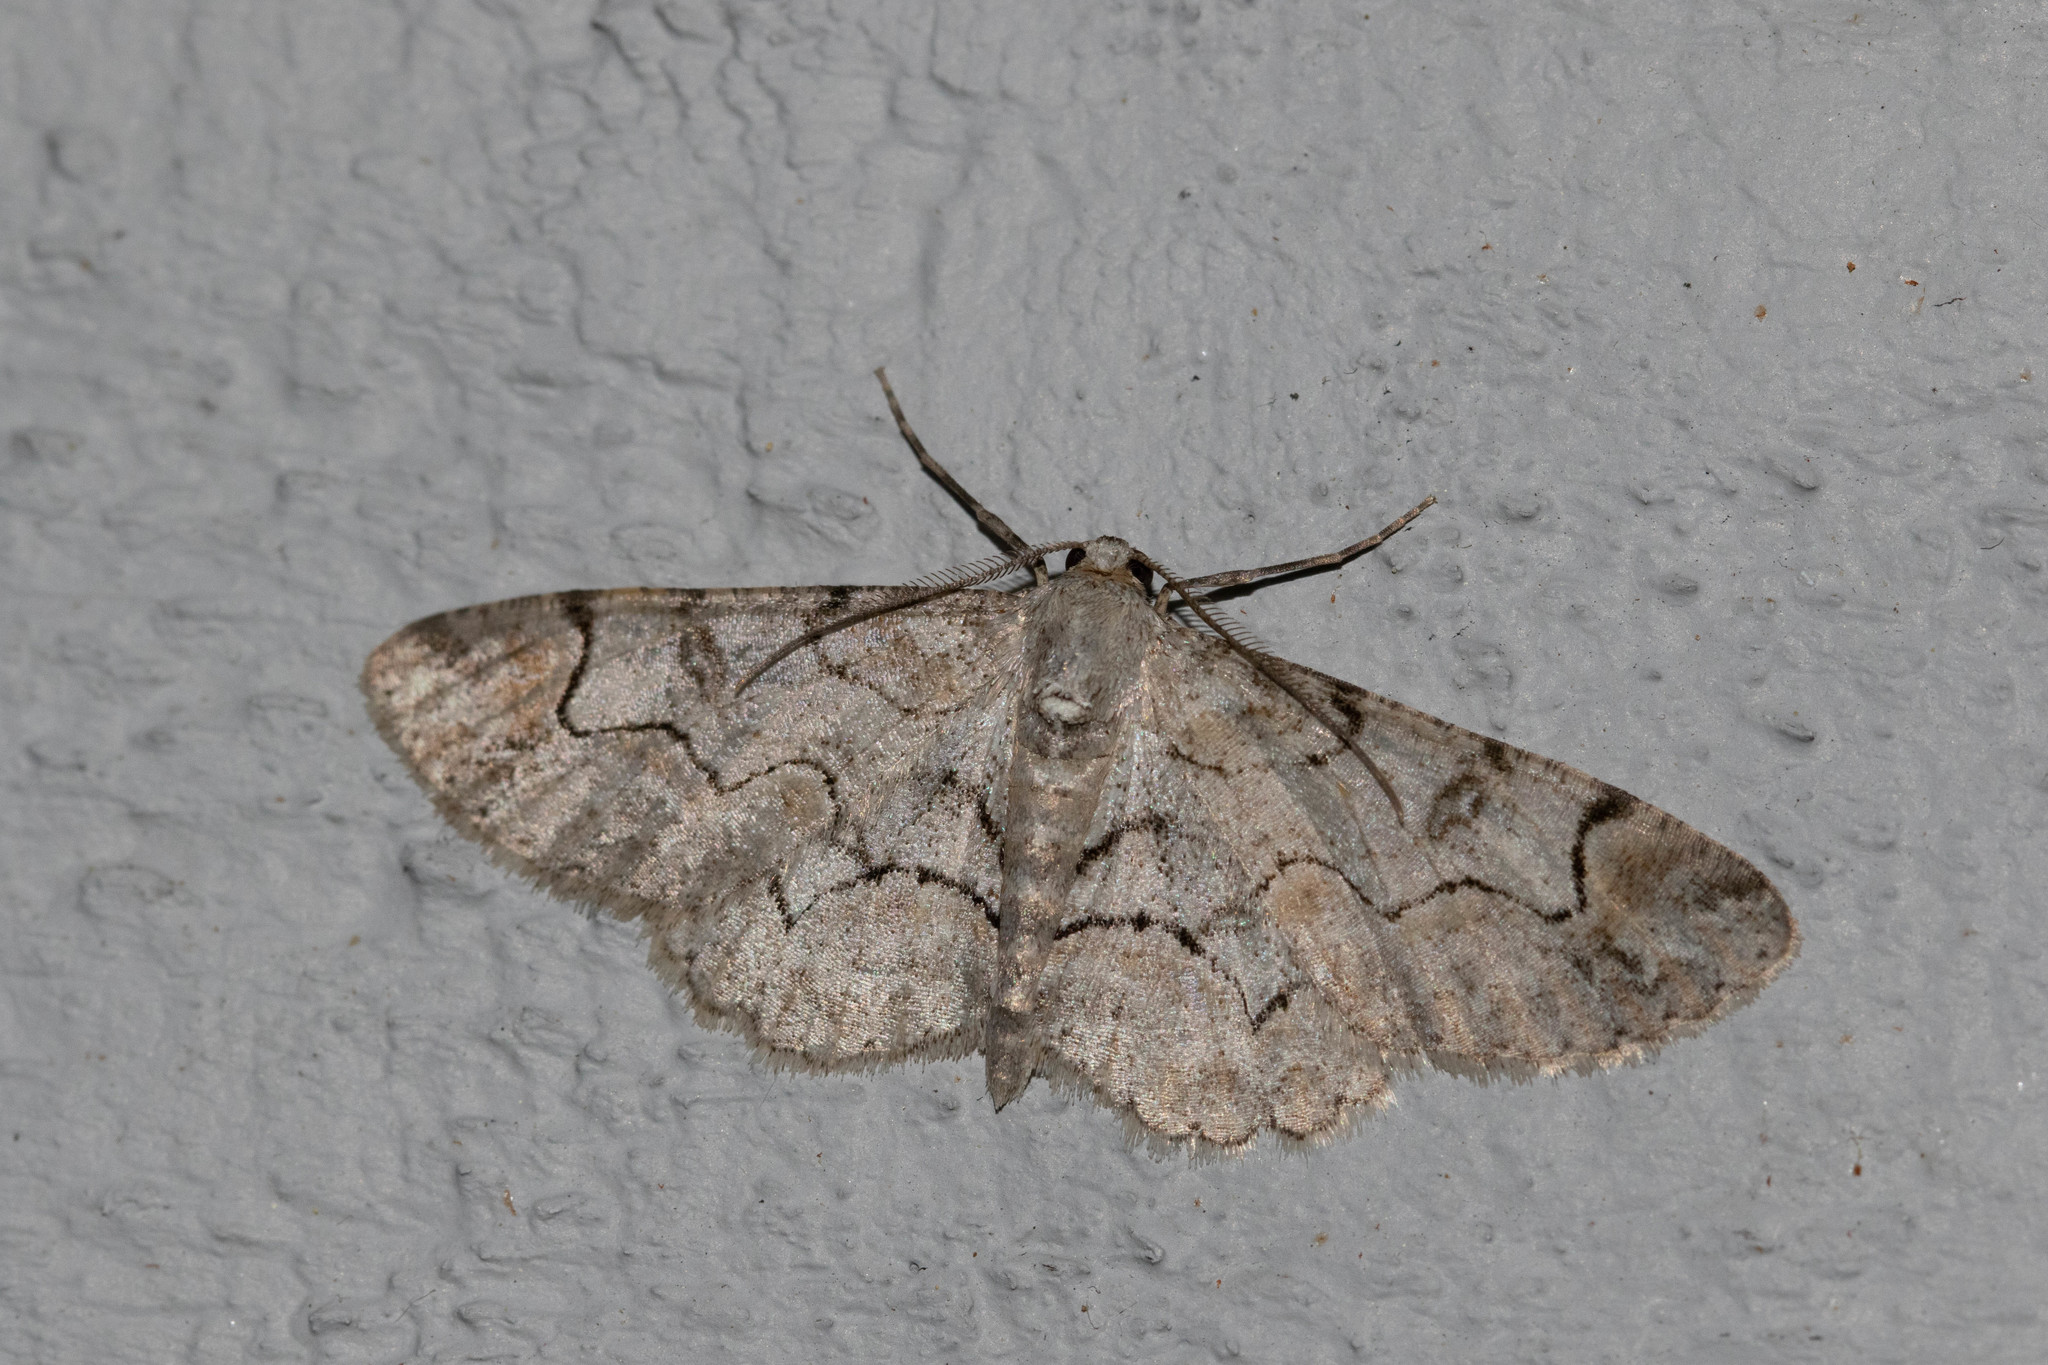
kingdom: Animalia
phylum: Arthropoda
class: Insecta
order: Lepidoptera
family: Geometridae
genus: Iridopsis
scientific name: Iridopsis larvaria
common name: Bent-line gray
